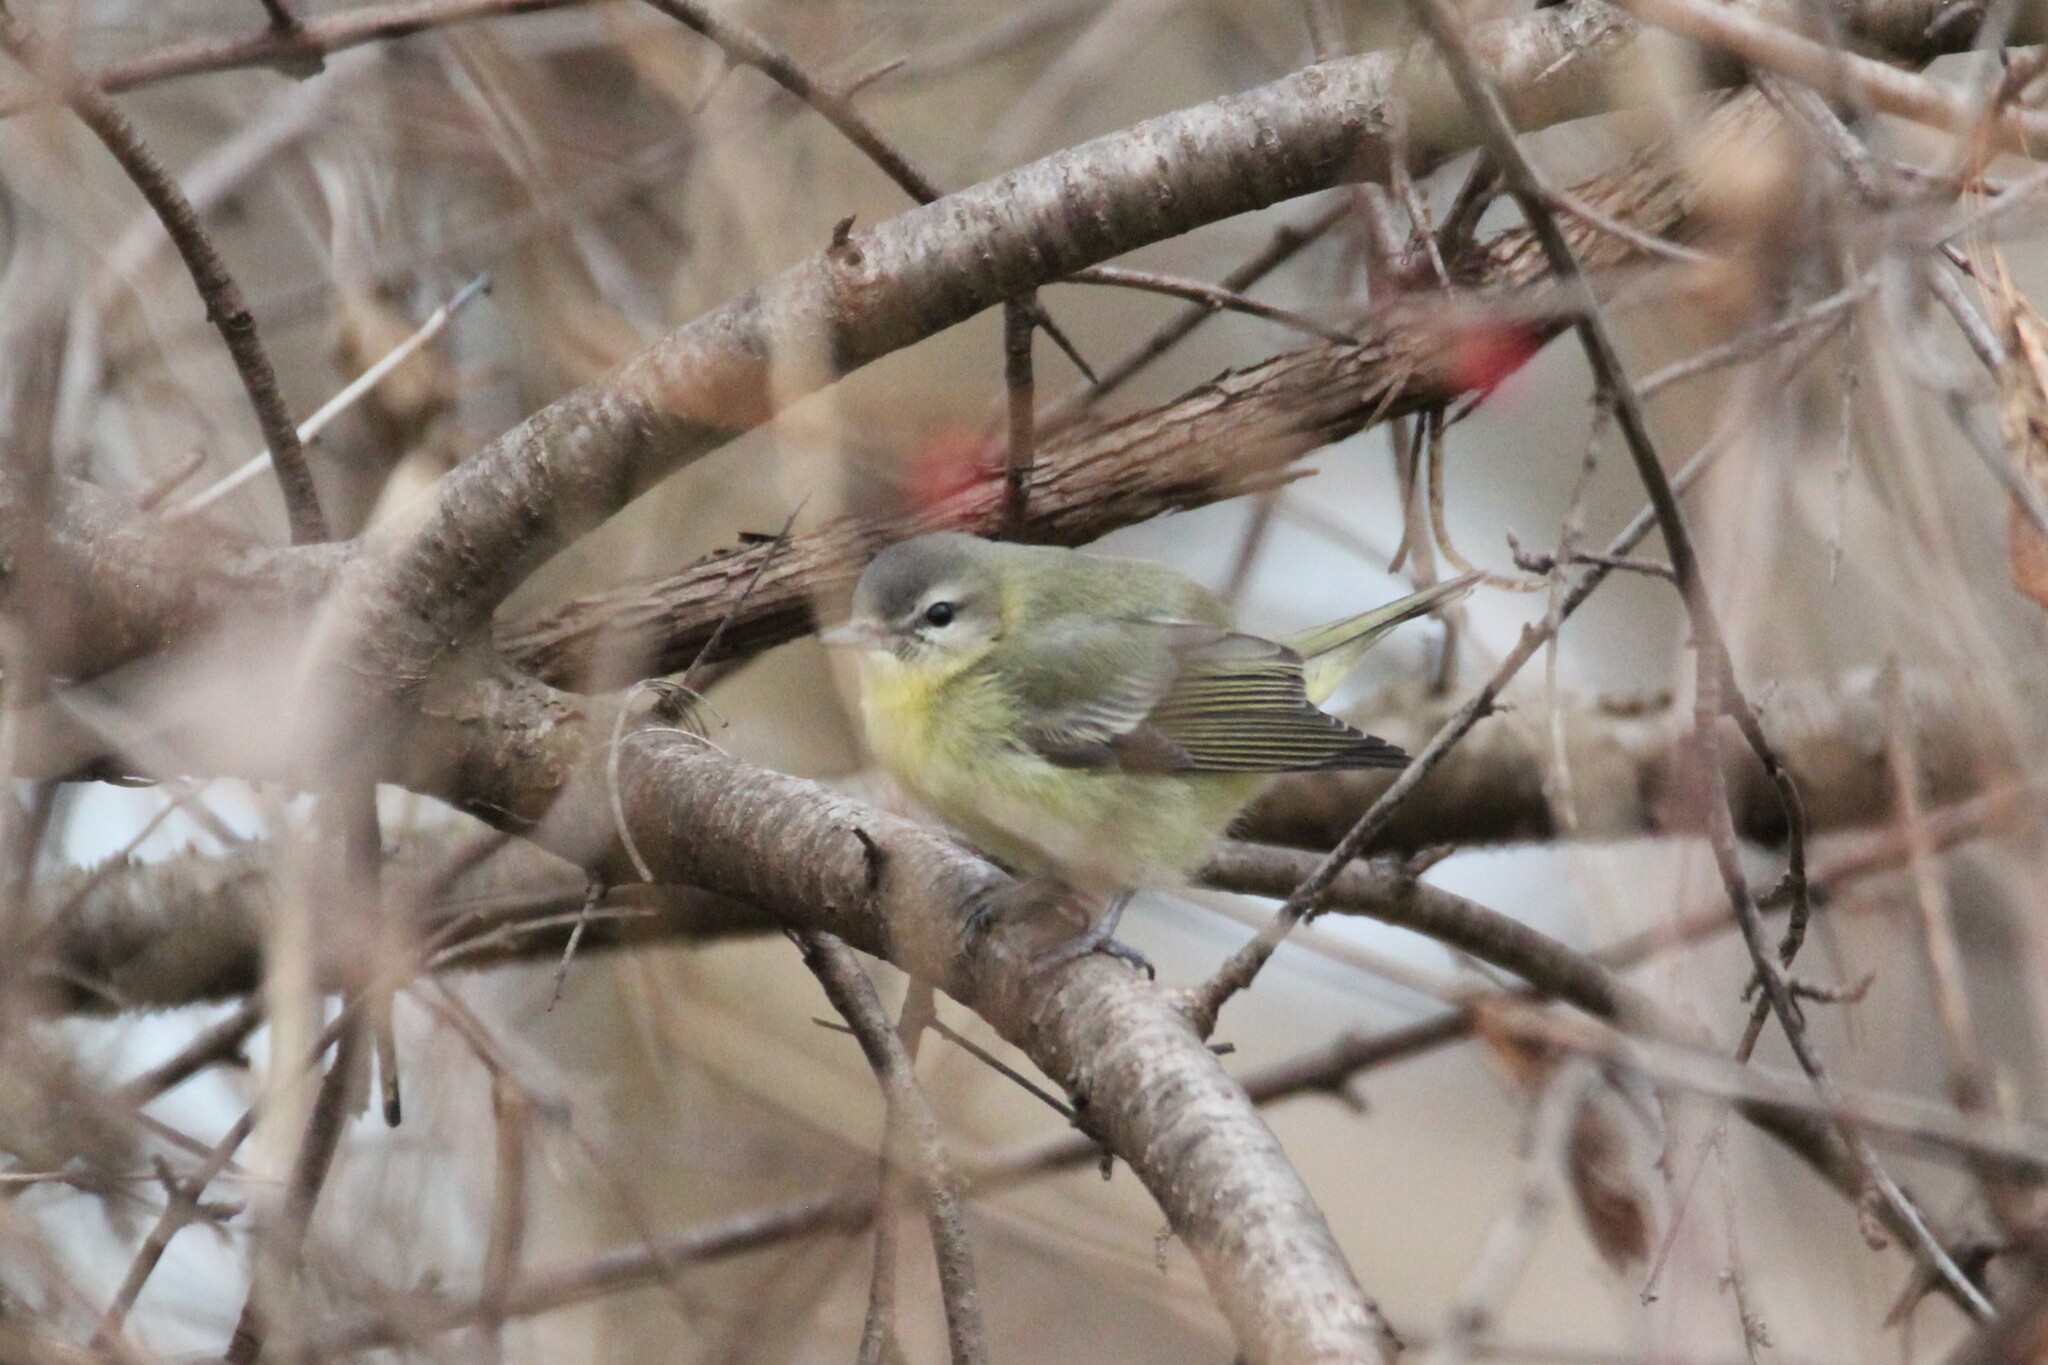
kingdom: Animalia
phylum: Chordata
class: Aves
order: Passeriformes
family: Vireonidae
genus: Vireo
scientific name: Vireo philadelphicus
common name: Philadelphia vireo
